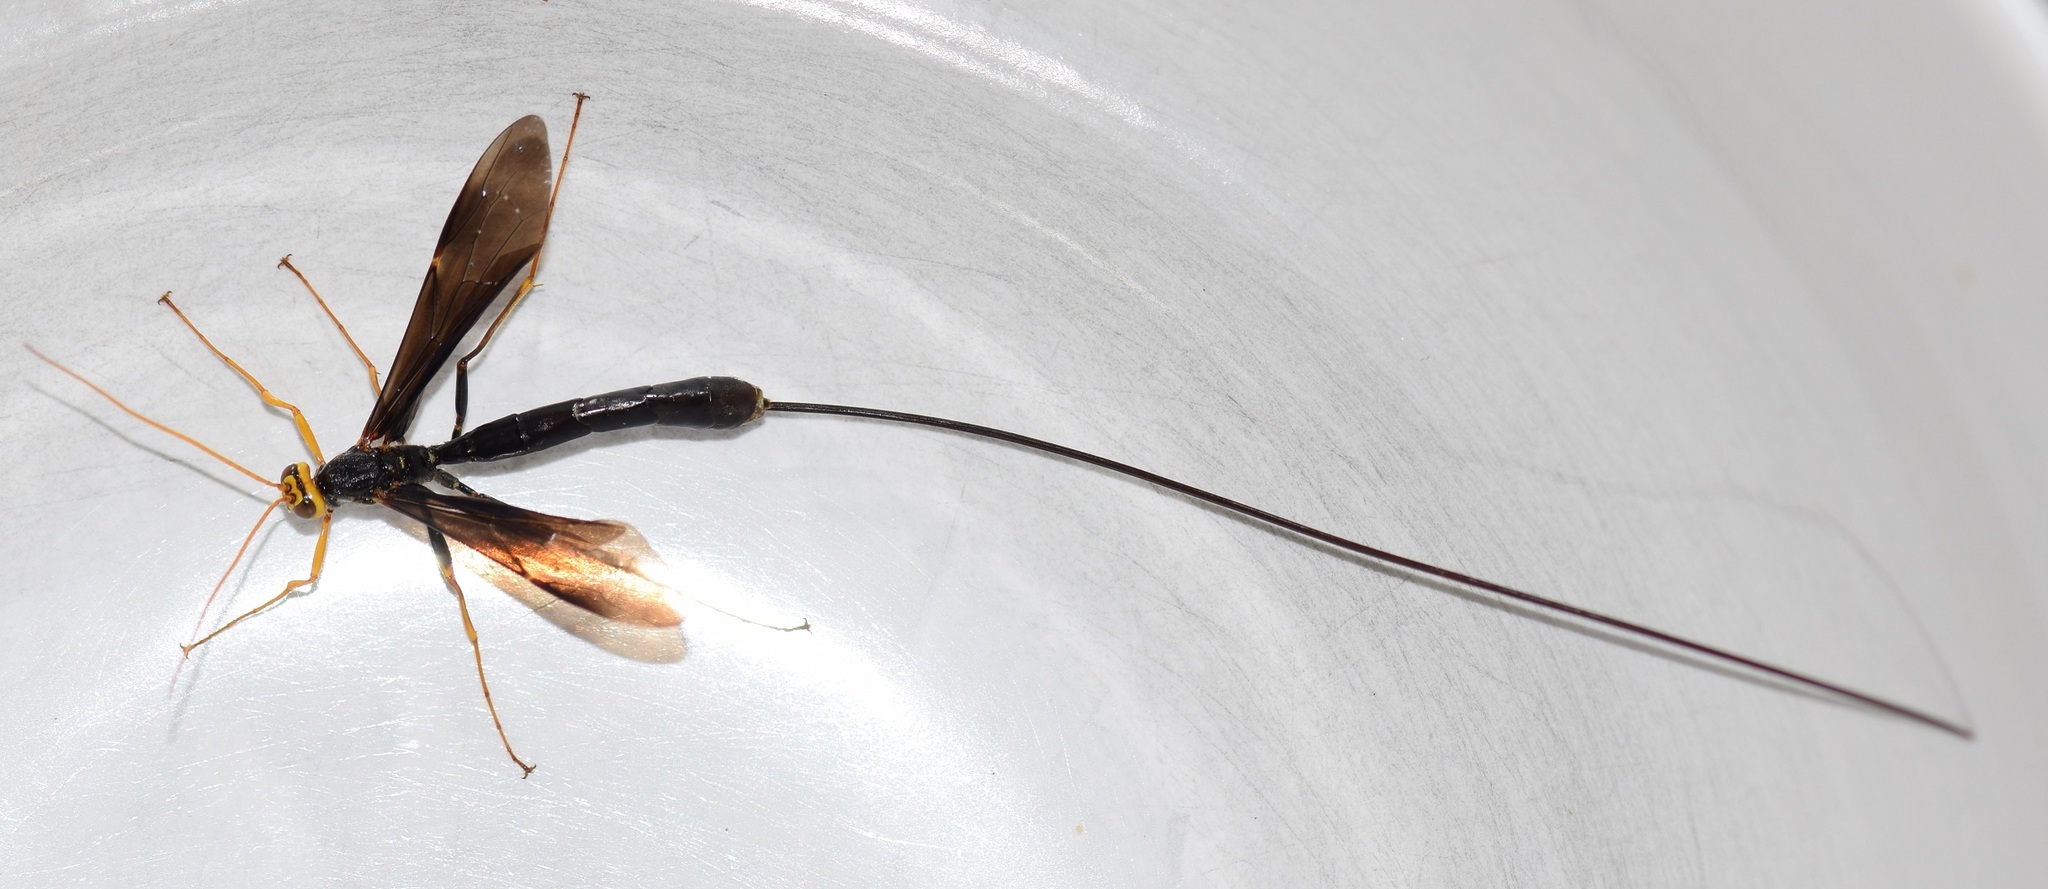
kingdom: Animalia
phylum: Arthropoda
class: Insecta
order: Hymenoptera
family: Ichneumonidae
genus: Megarhyssa
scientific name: Megarhyssa atrata
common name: Black giant ichneumonid wasp
